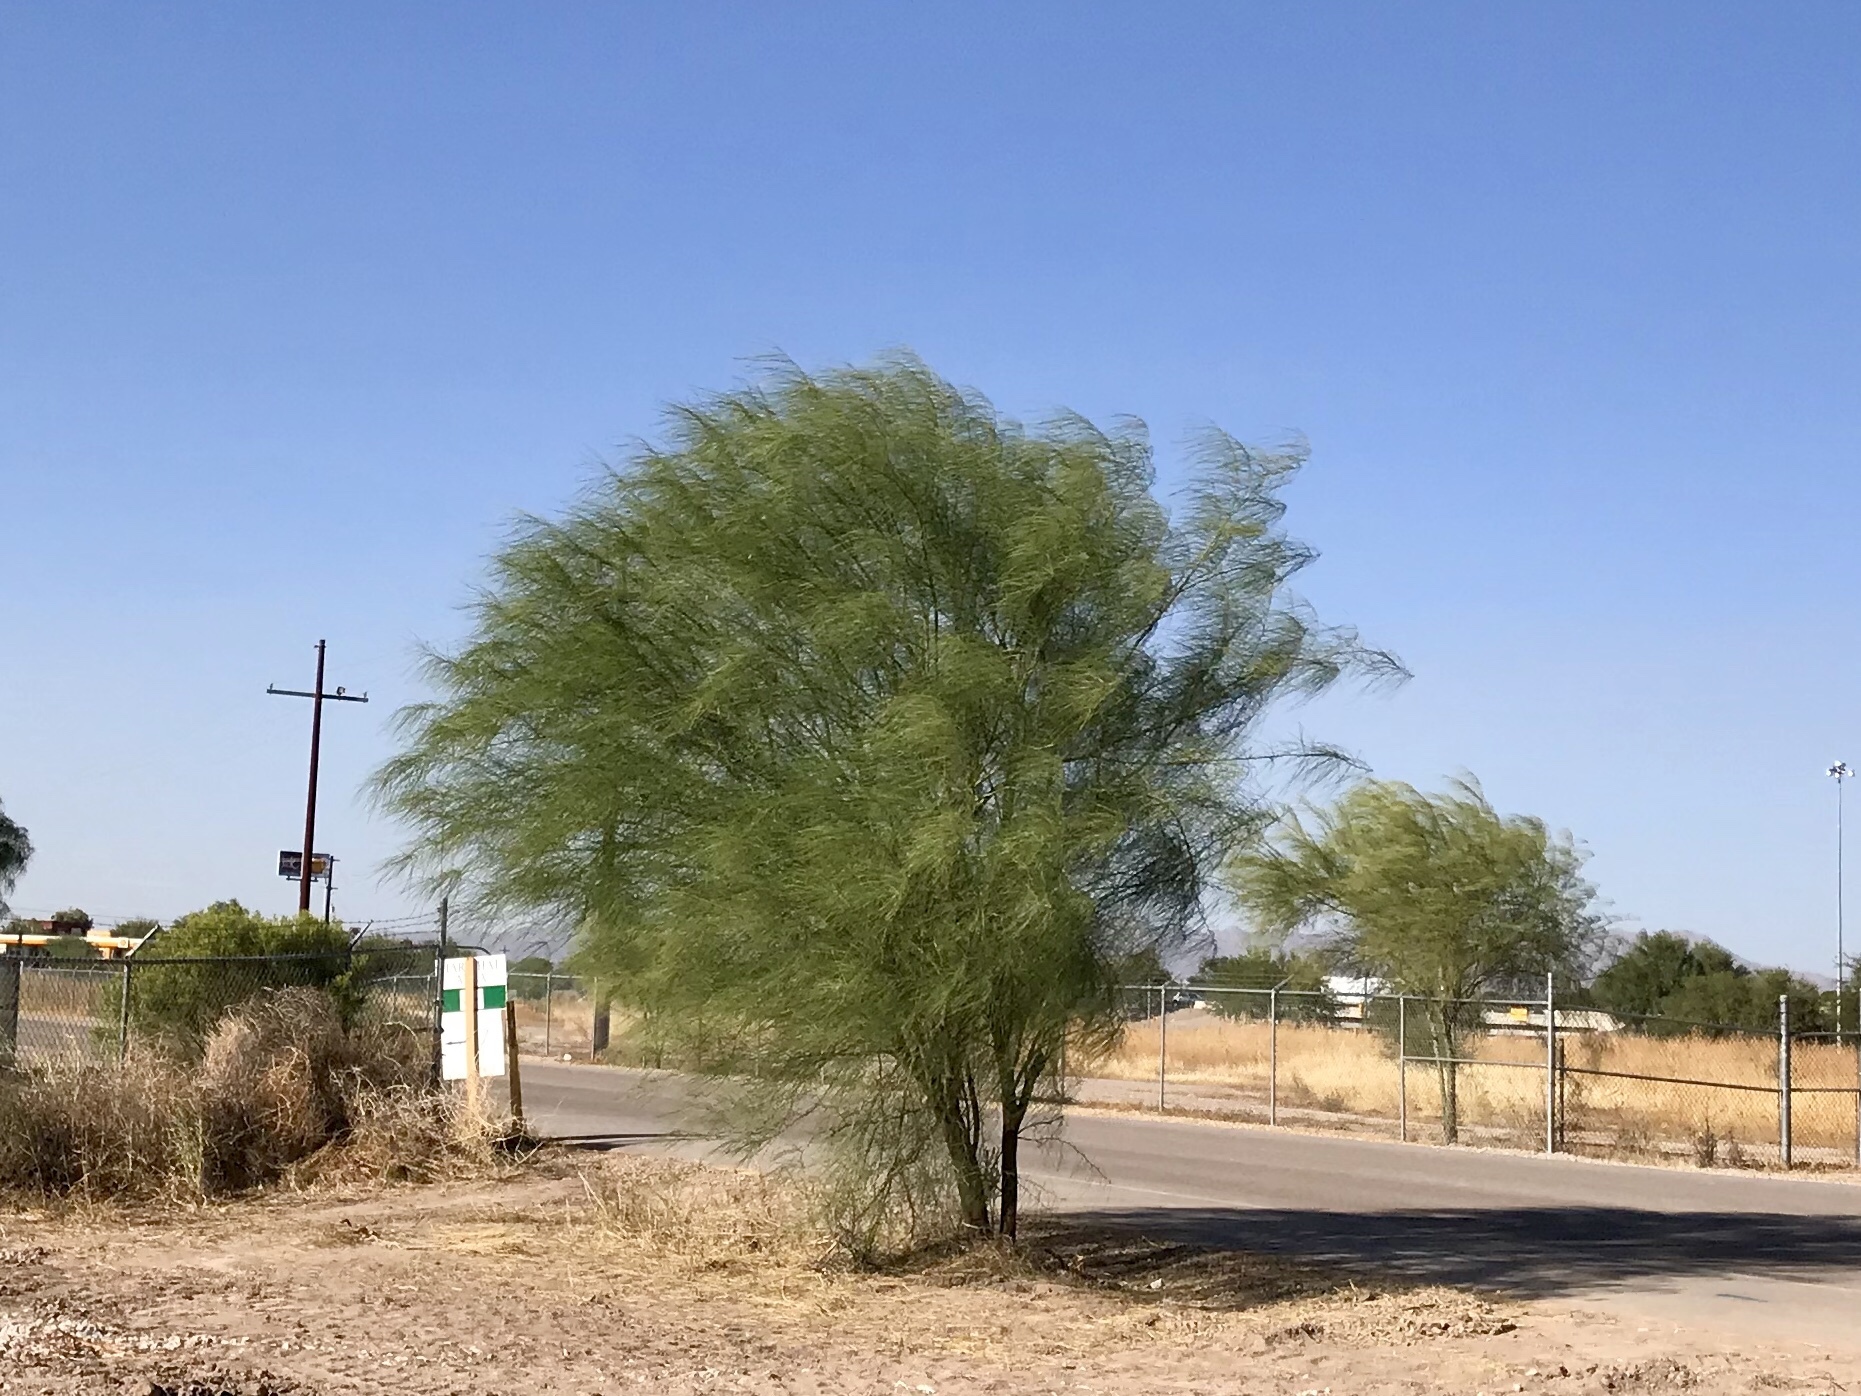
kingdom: Plantae
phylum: Tracheophyta
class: Magnoliopsida
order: Fabales
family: Fabaceae
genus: Parkinsonia
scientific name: Parkinsonia aculeata
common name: Jerusalem thorn
